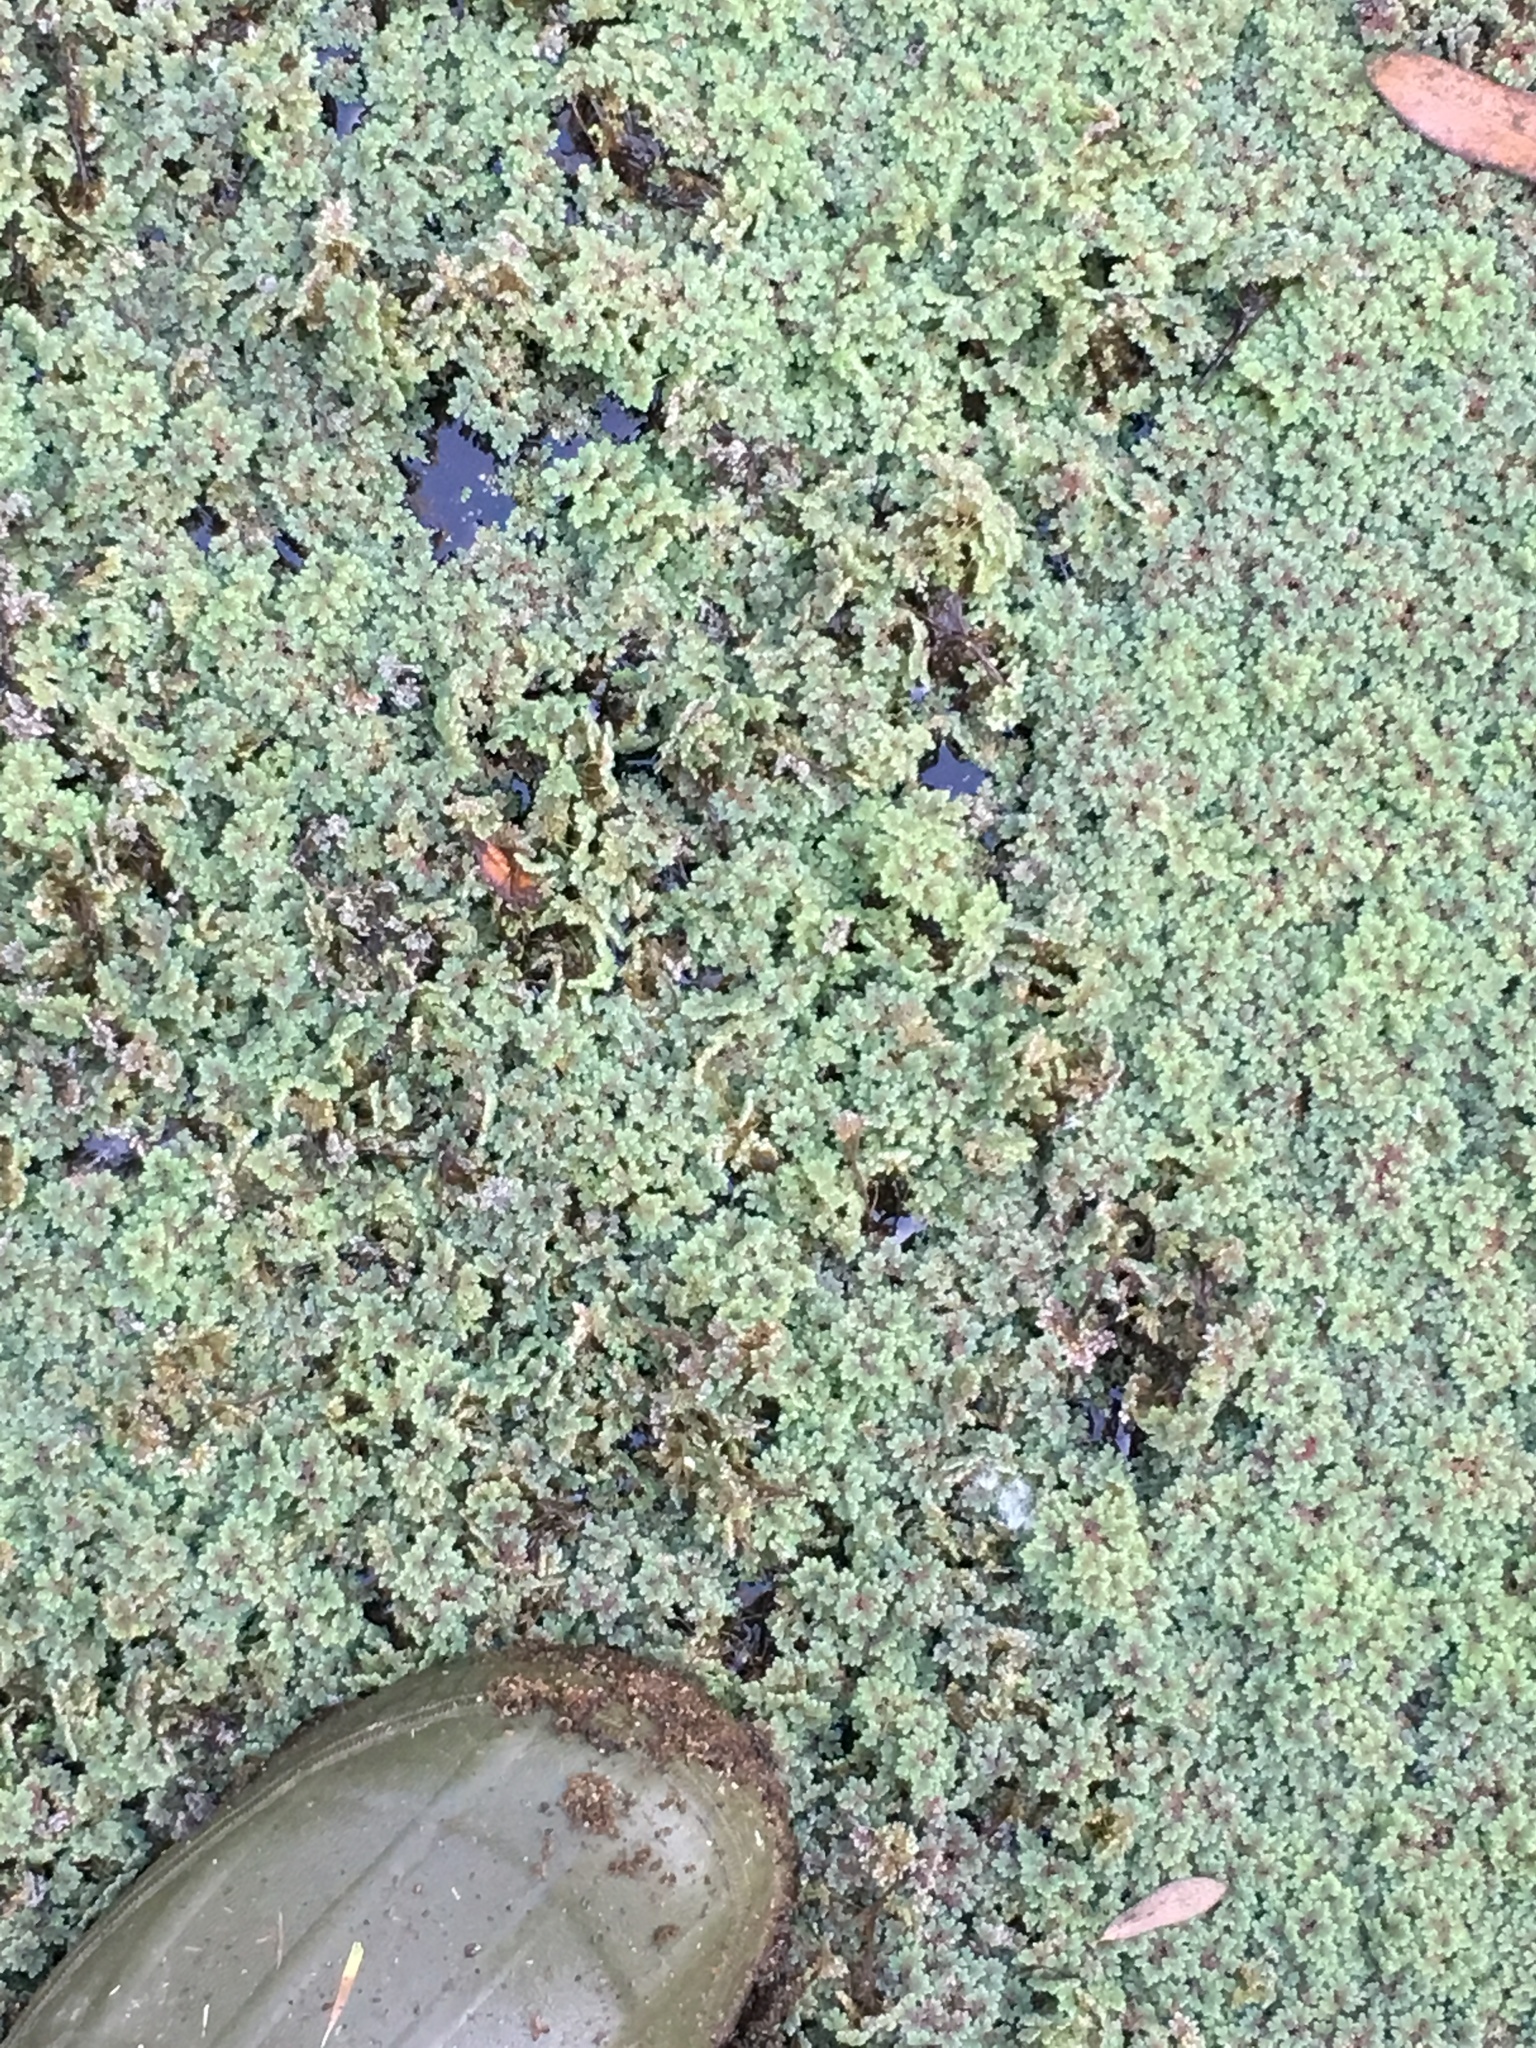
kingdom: Plantae
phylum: Tracheophyta
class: Polypodiopsida
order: Salviniales
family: Salviniaceae
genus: Azolla
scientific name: Azolla filiculoides
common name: Water fern
